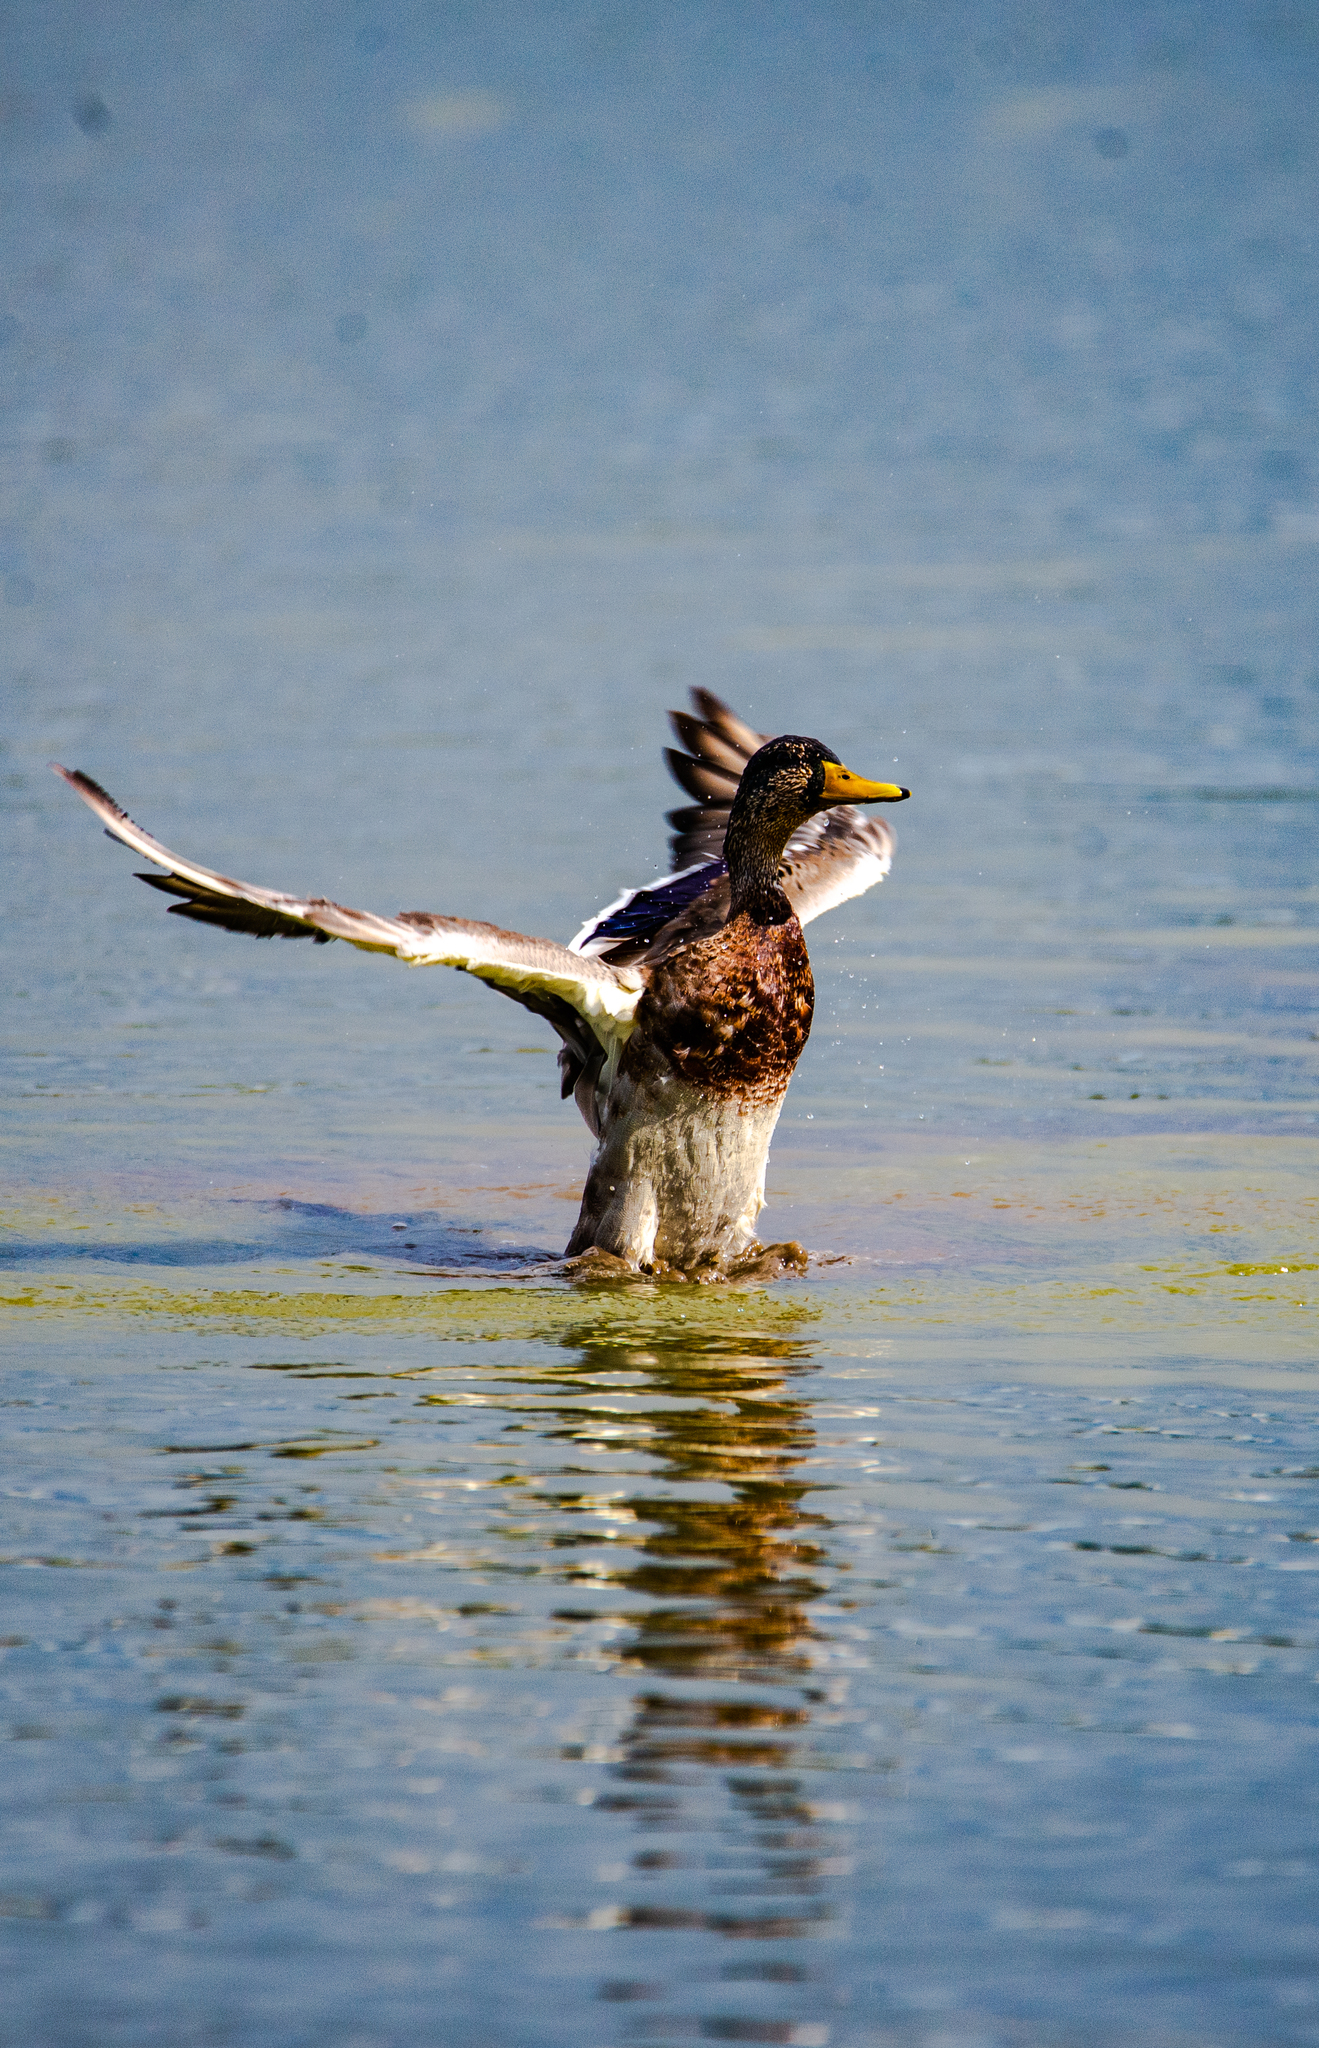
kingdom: Animalia
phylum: Chordata
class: Aves
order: Anseriformes
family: Anatidae
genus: Anas
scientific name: Anas platyrhynchos
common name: Mallard
